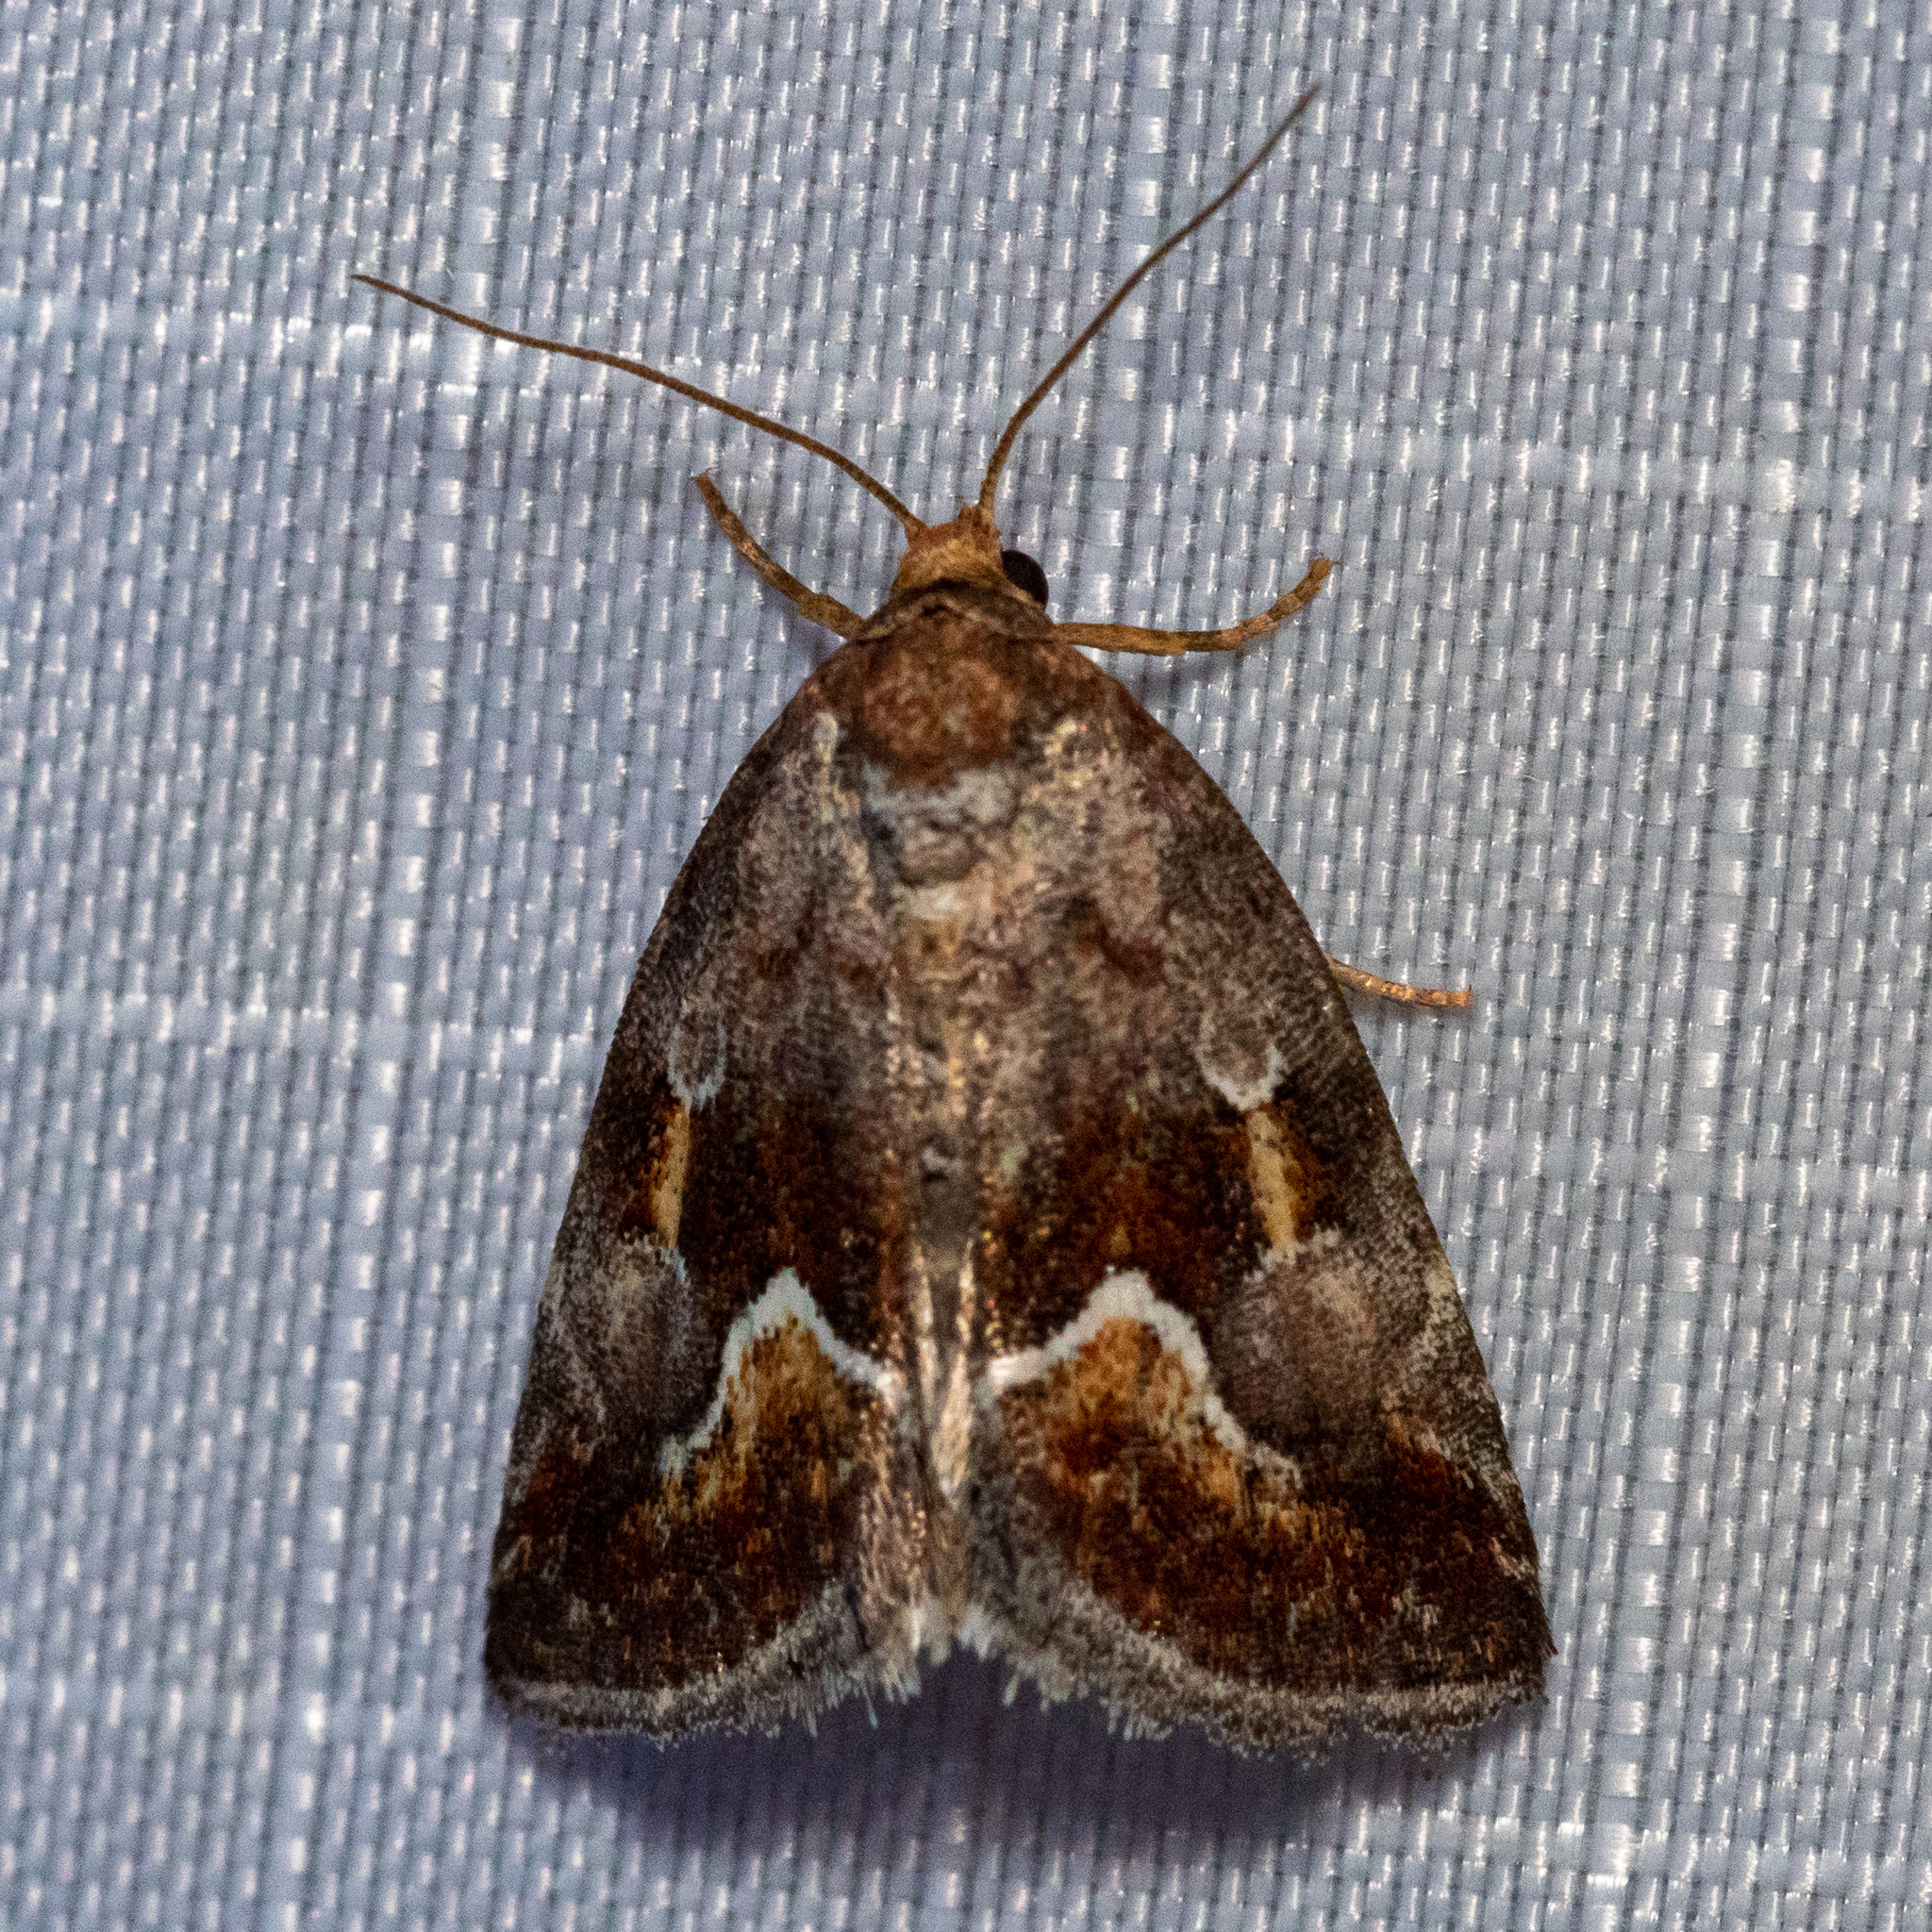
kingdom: Animalia
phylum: Arthropoda
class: Insecta
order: Lepidoptera
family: Noctuidae
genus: Deltote
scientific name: Deltote bellicula
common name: Bog glyph
